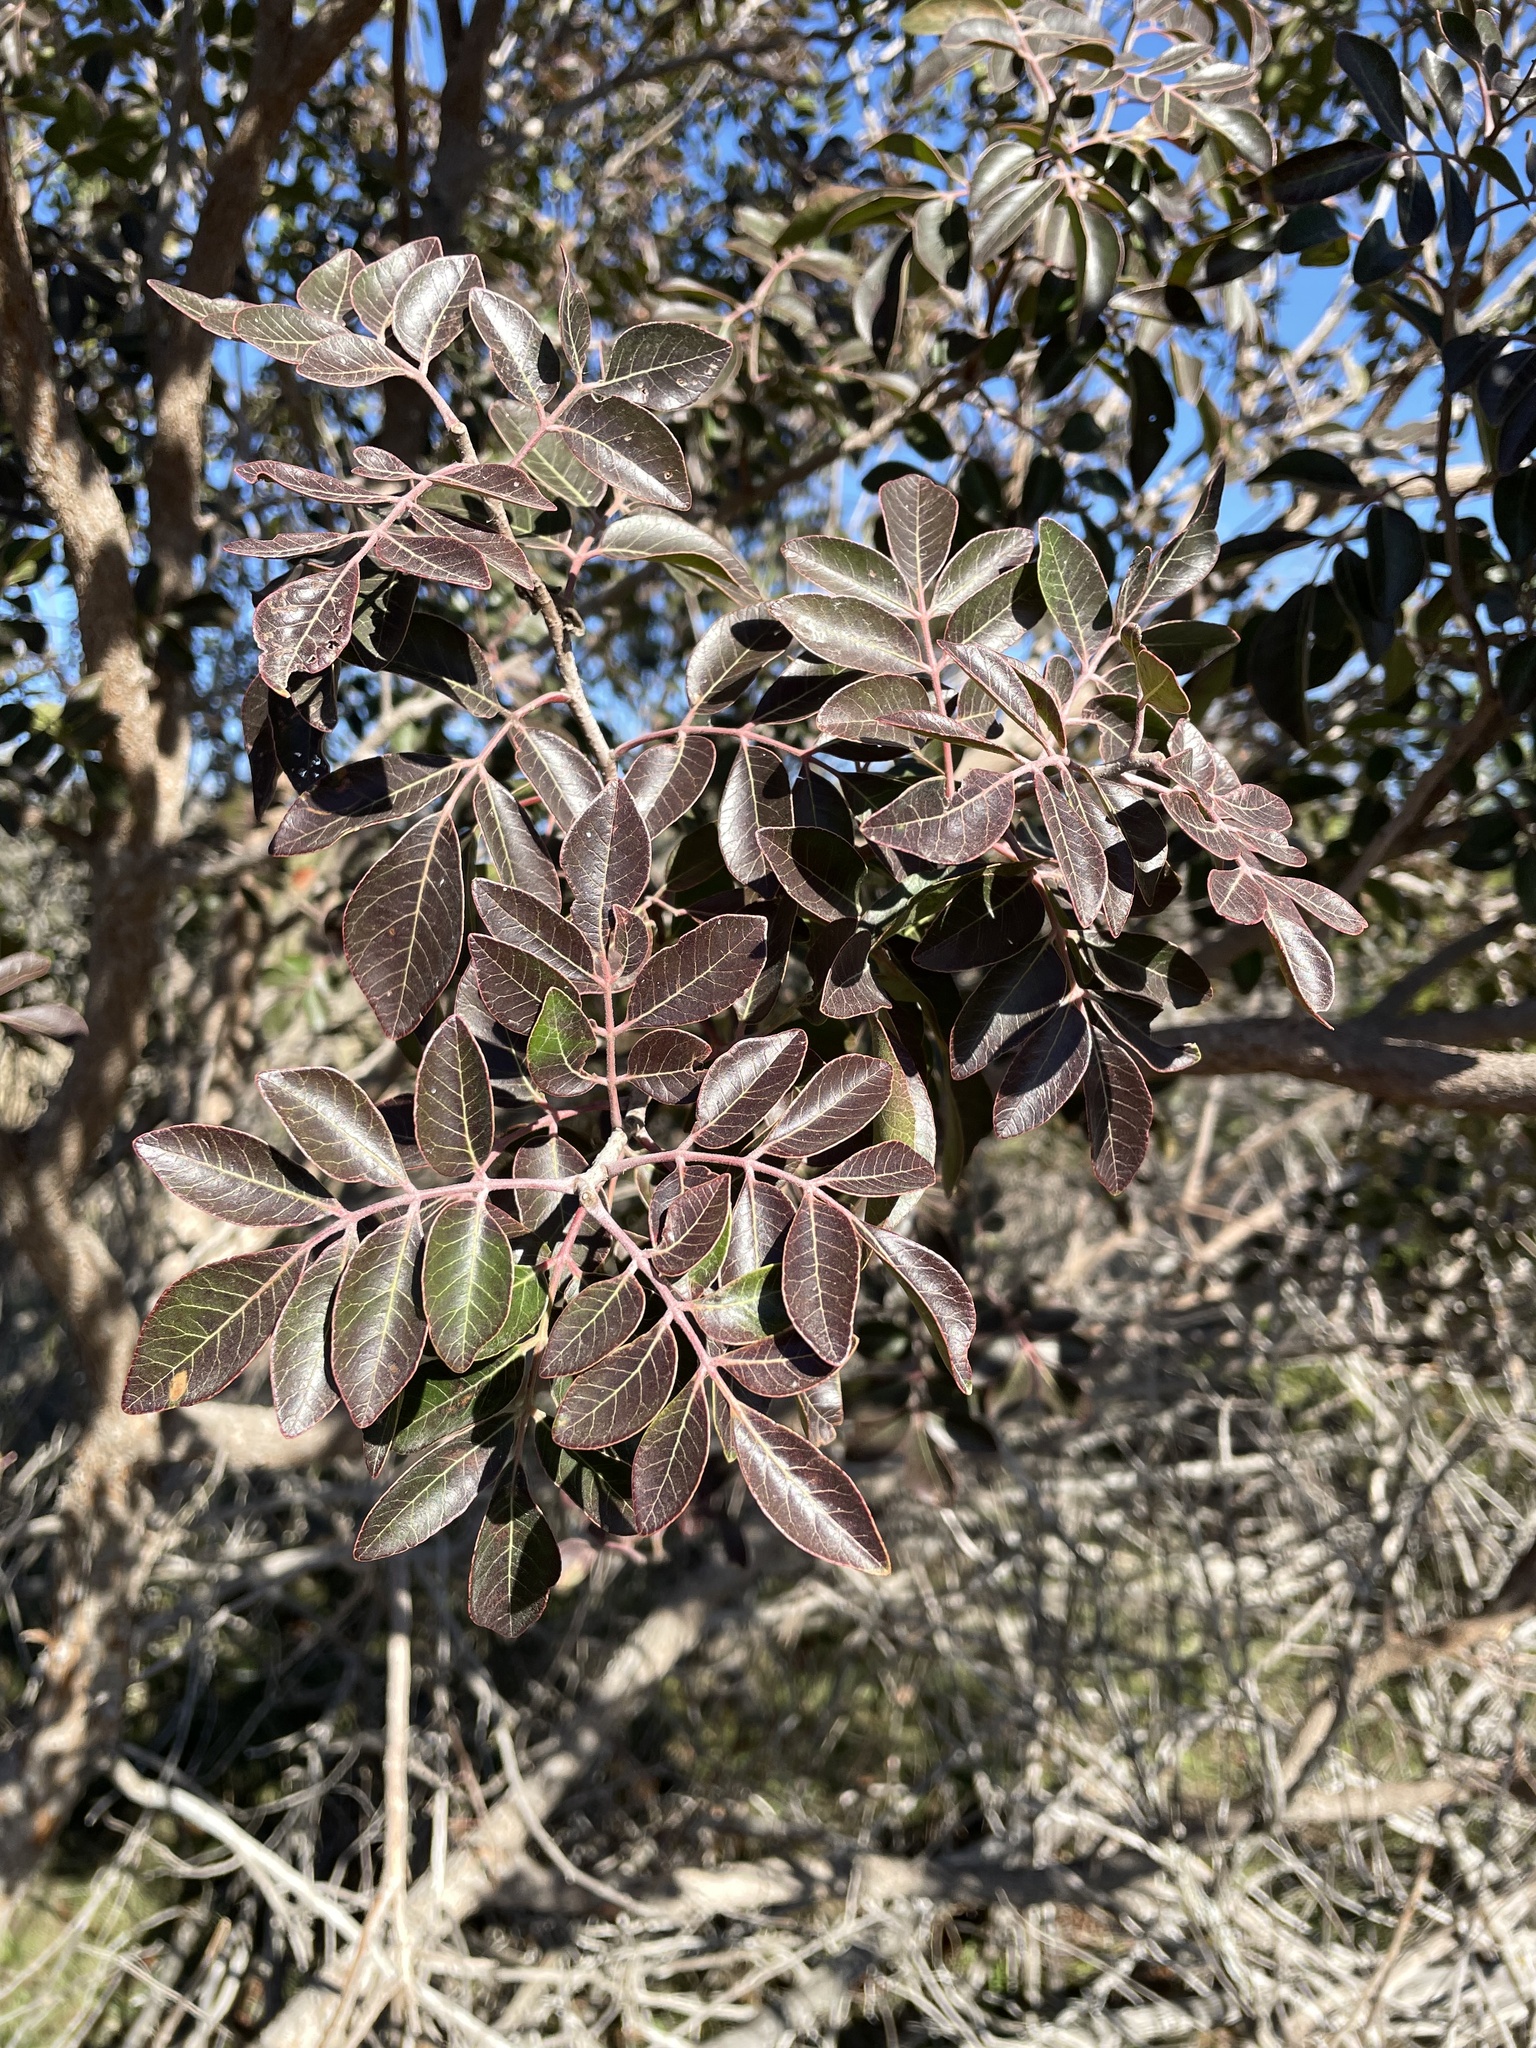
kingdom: Plantae
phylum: Tracheophyta
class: Magnoliopsida
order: Sapindales
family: Anacardiaceae
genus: Rhus
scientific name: Rhus virens
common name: Evergreen sumac
